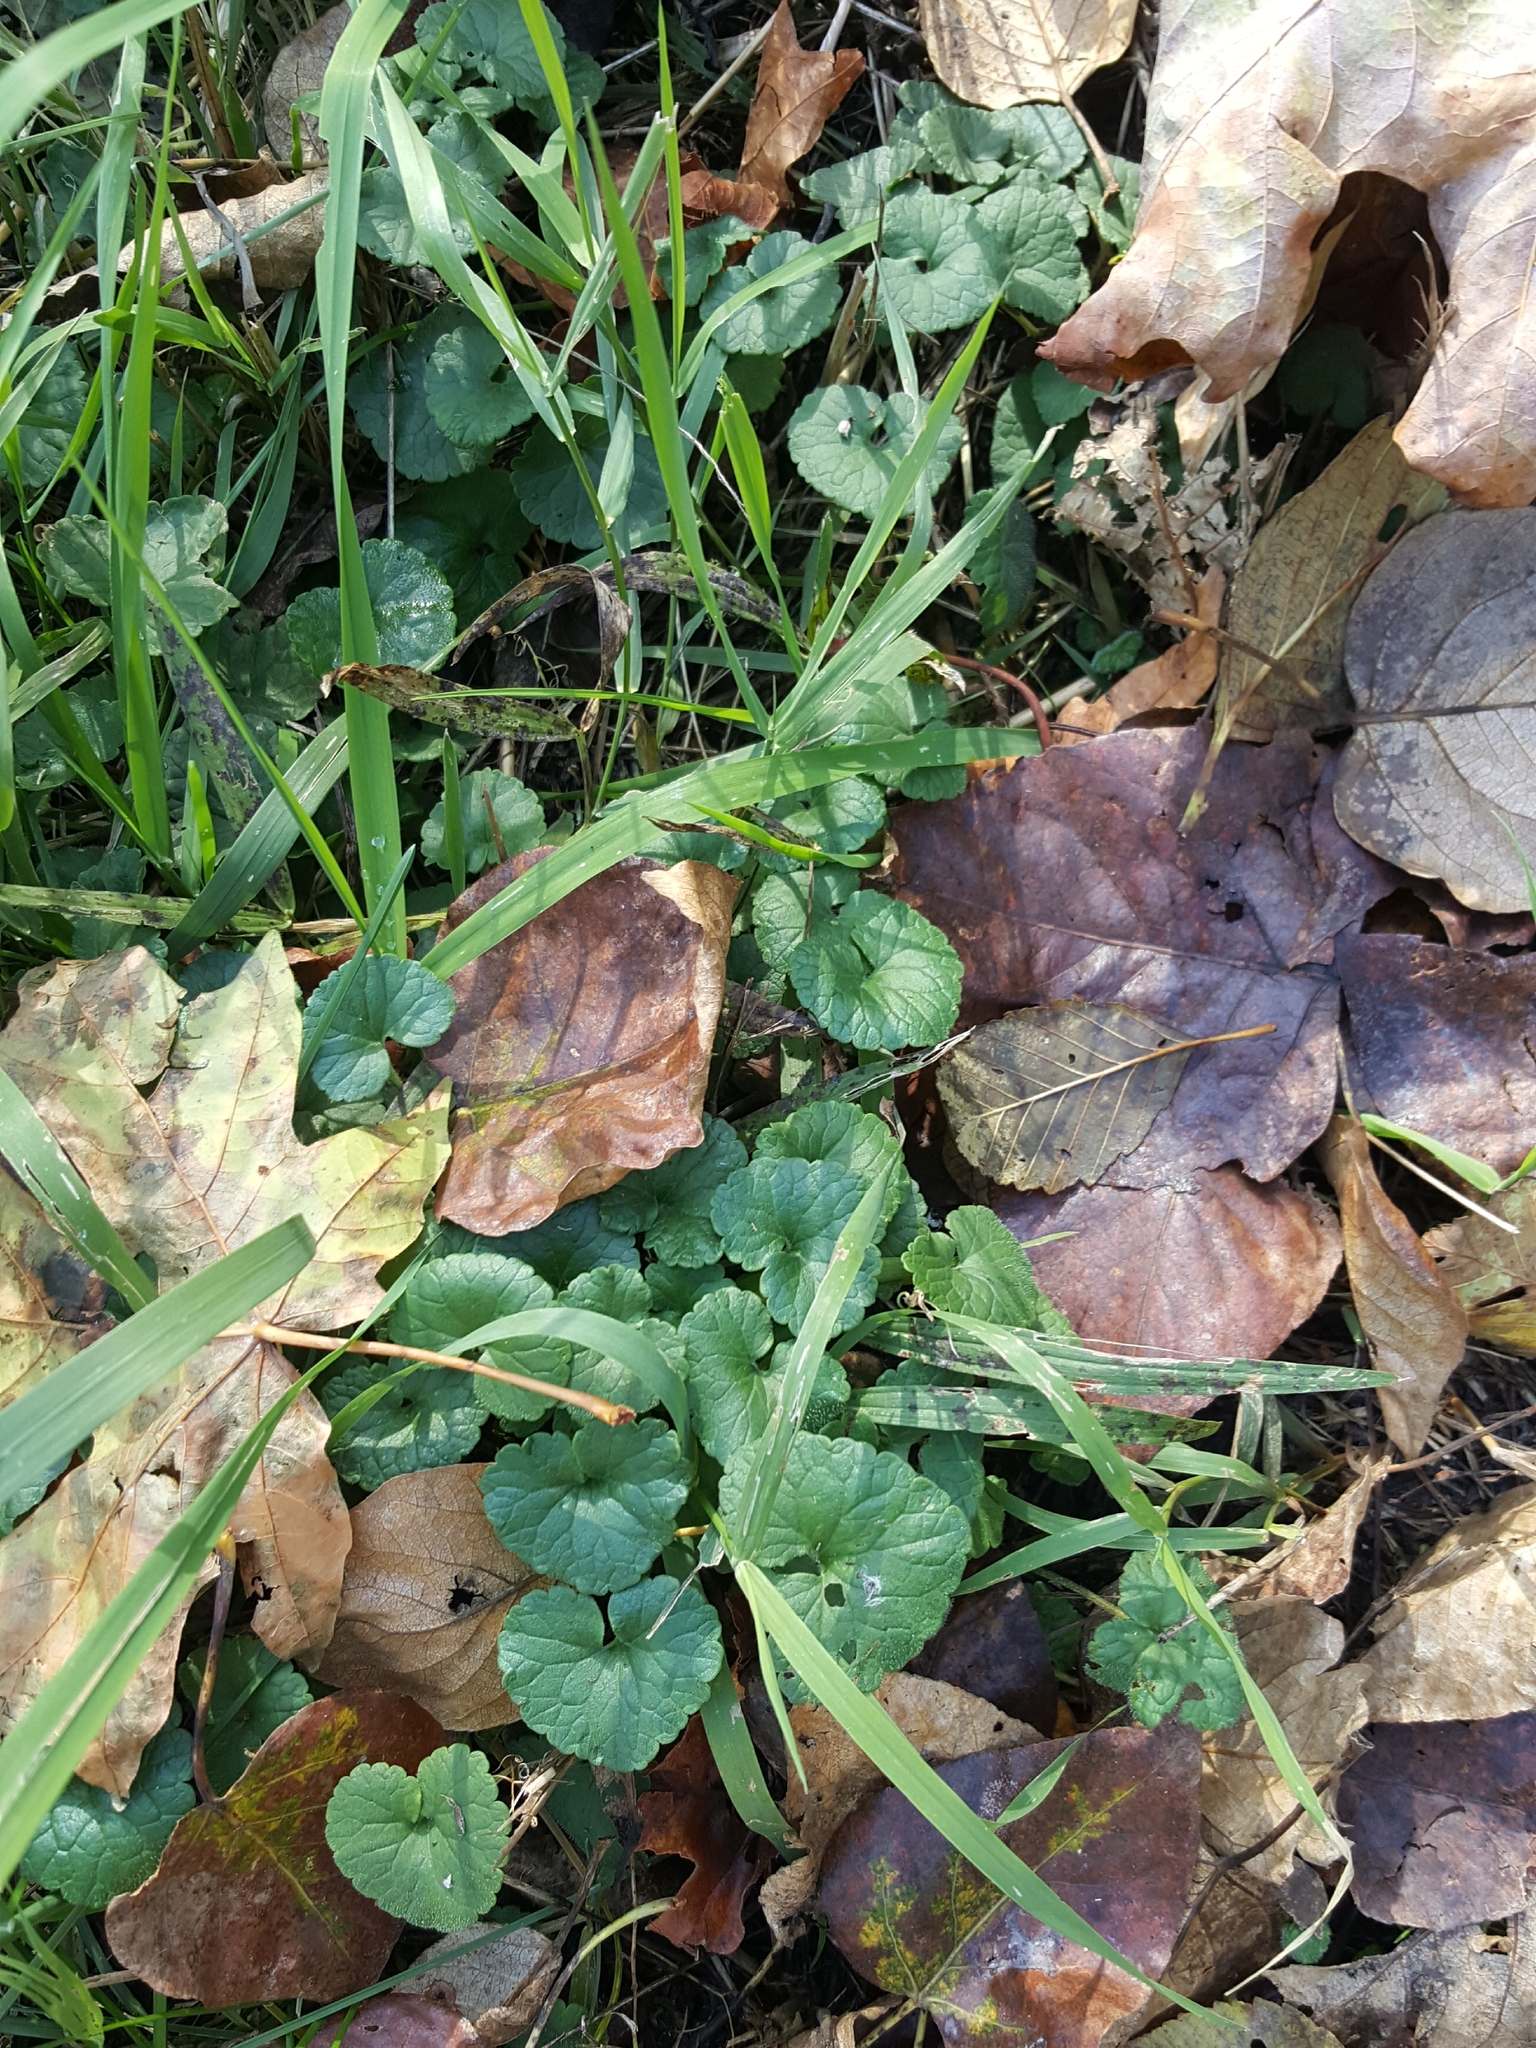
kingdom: Plantae
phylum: Tracheophyta
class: Magnoliopsida
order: Lamiales
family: Lamiaceae
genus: Glechoma
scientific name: Glechoma hederacea
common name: Ground ivy
